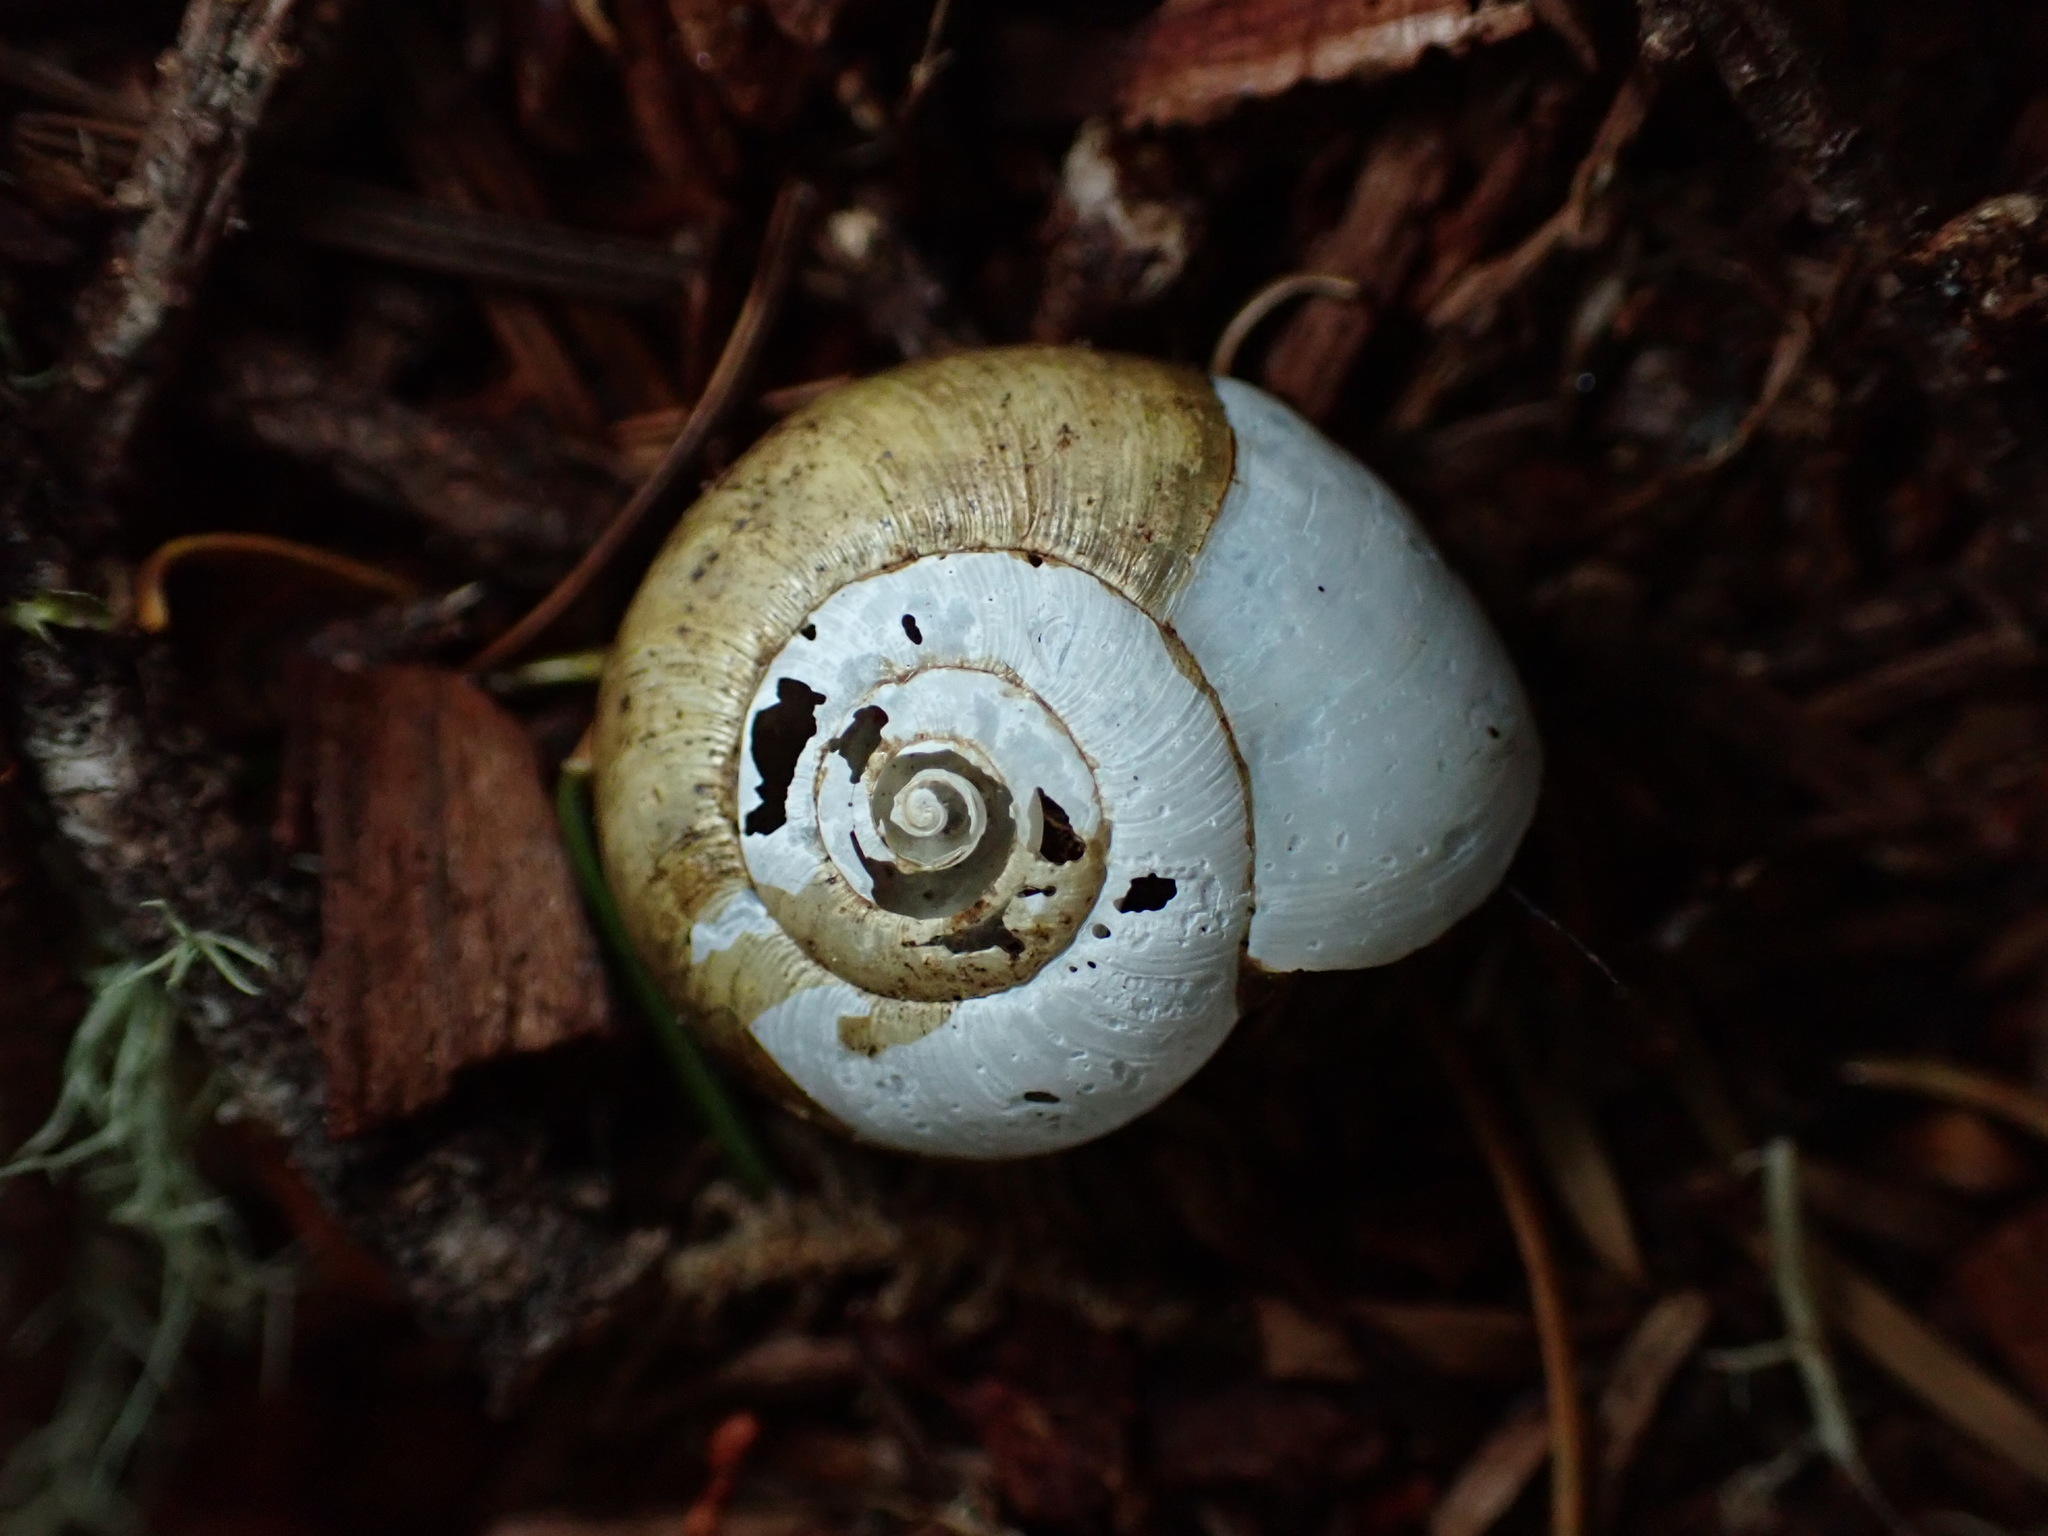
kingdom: Animalia
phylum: Mollusca
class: Gastropoda
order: Stylommatophora
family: Haplotrematidae
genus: Haplotrema
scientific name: Haplotrema minimum
